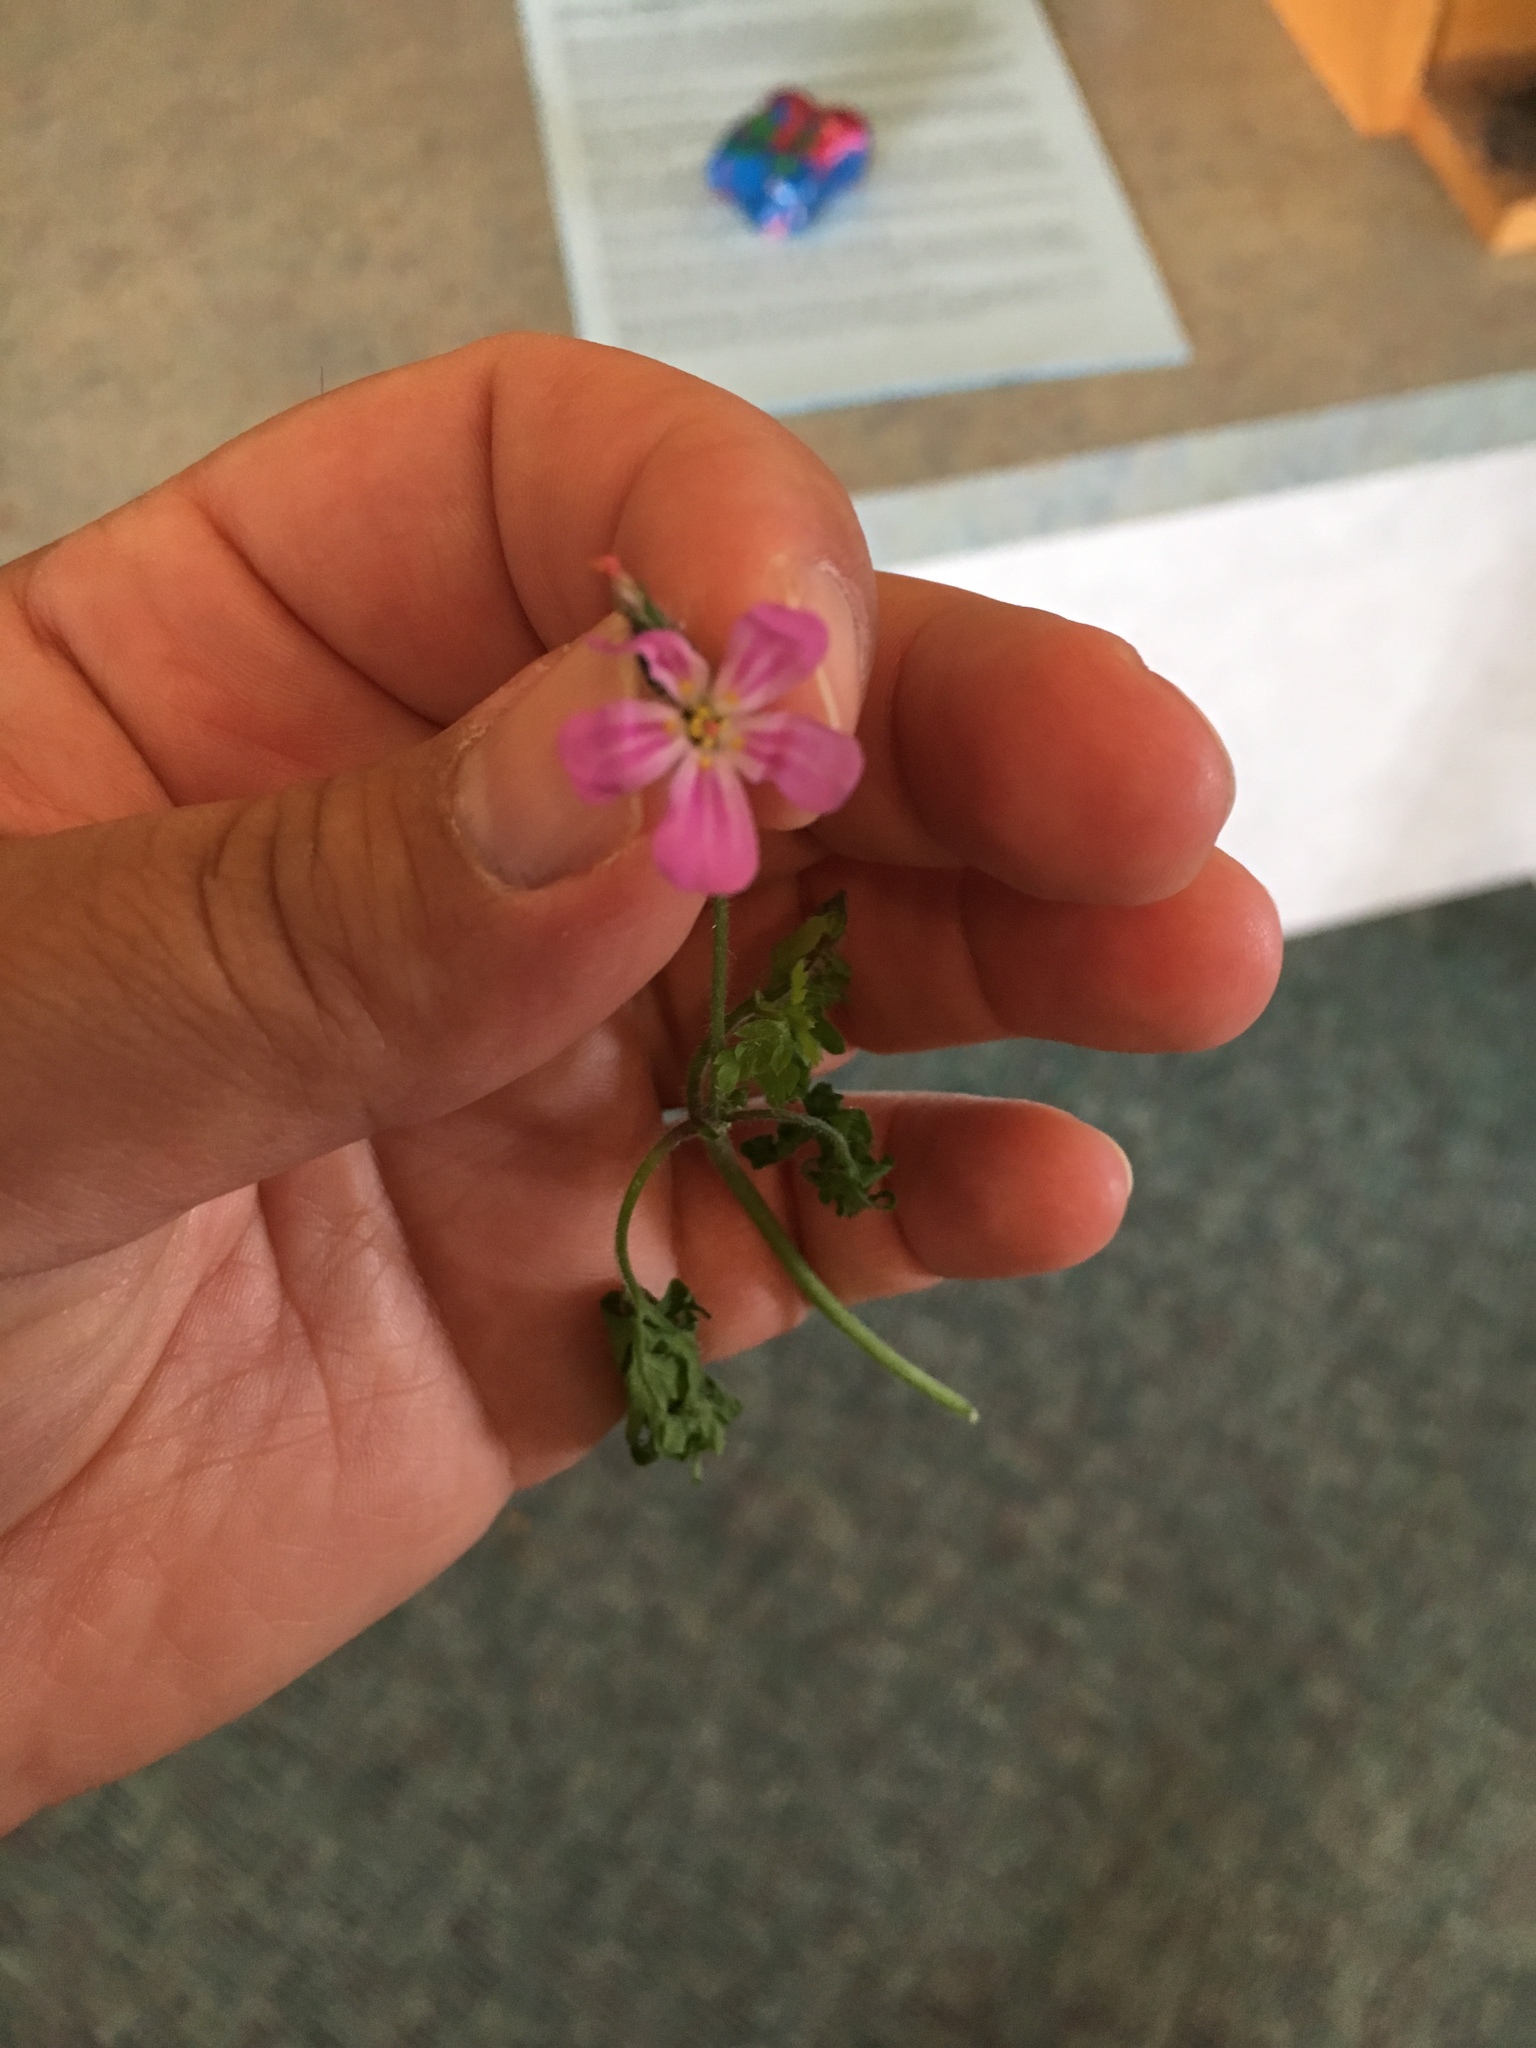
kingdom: Plantae
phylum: Tracheophyta
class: Magnoliopsida
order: Geraniales
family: Geraniaceae
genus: Geranium
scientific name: Geranium robertianum
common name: Herb-robert
